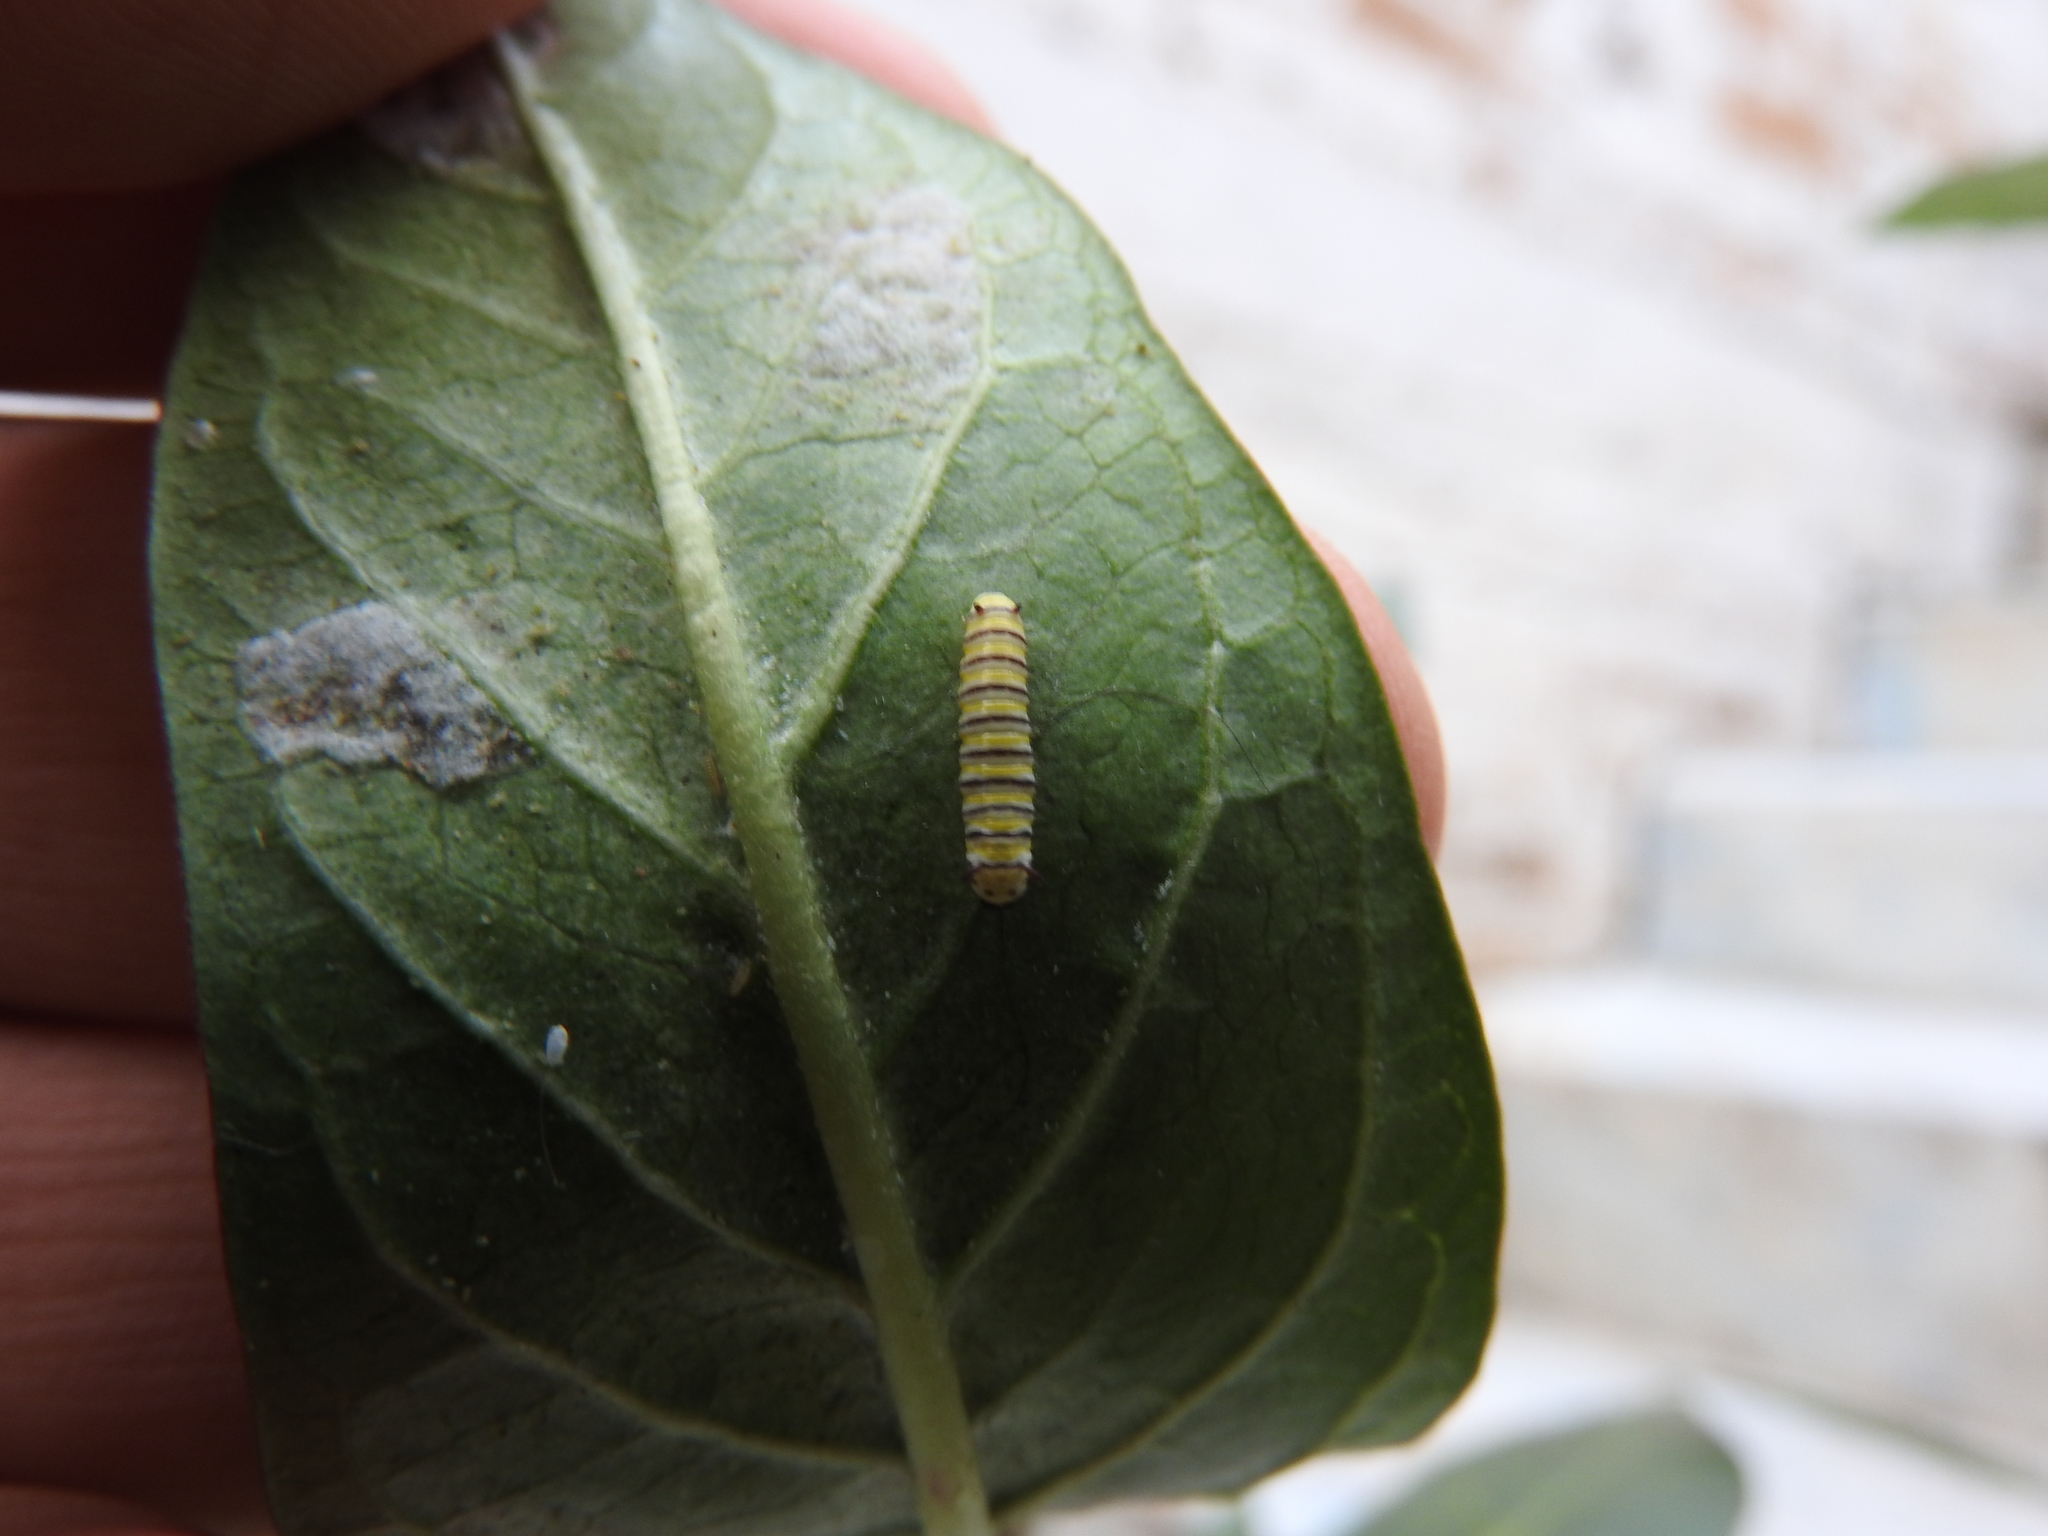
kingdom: Animalia
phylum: Arthropoda
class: Insecta
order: Lepidoptera
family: Nymphalidae
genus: Danaus
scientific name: Danaus plexippus
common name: Monarch
